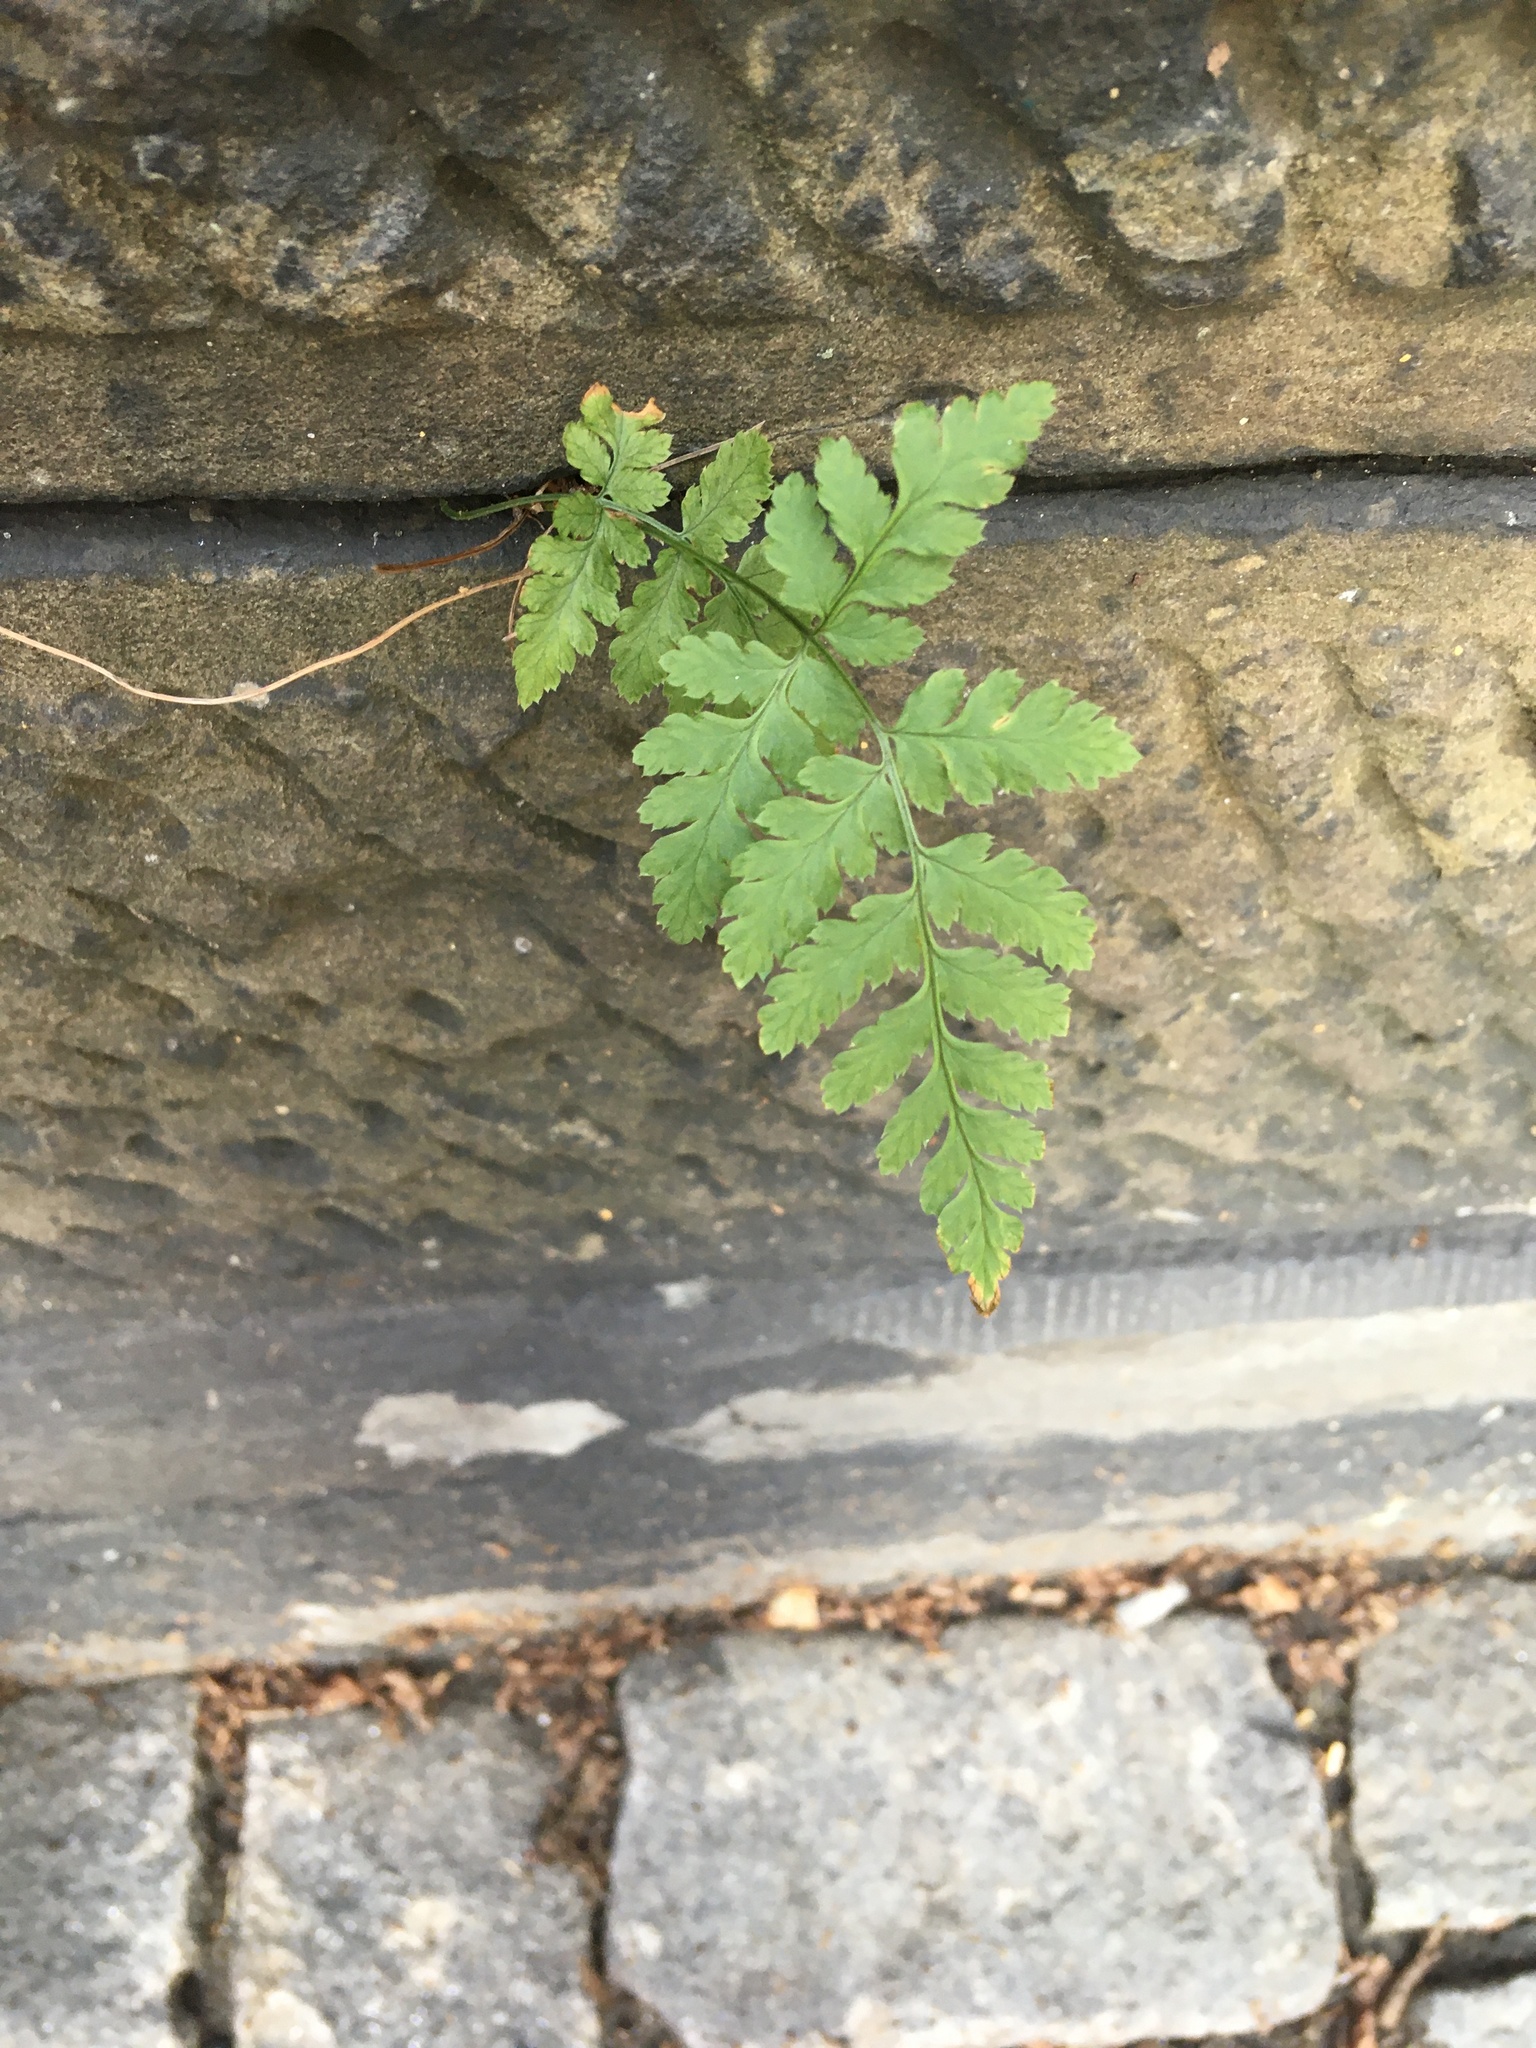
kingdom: Plantae
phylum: Tracheophyta
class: Polypodiopsida
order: Polypodiales
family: Dryopteridaceae
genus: Dryopteris
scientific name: Dryopteris intermedia
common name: Evergreen wood fern
